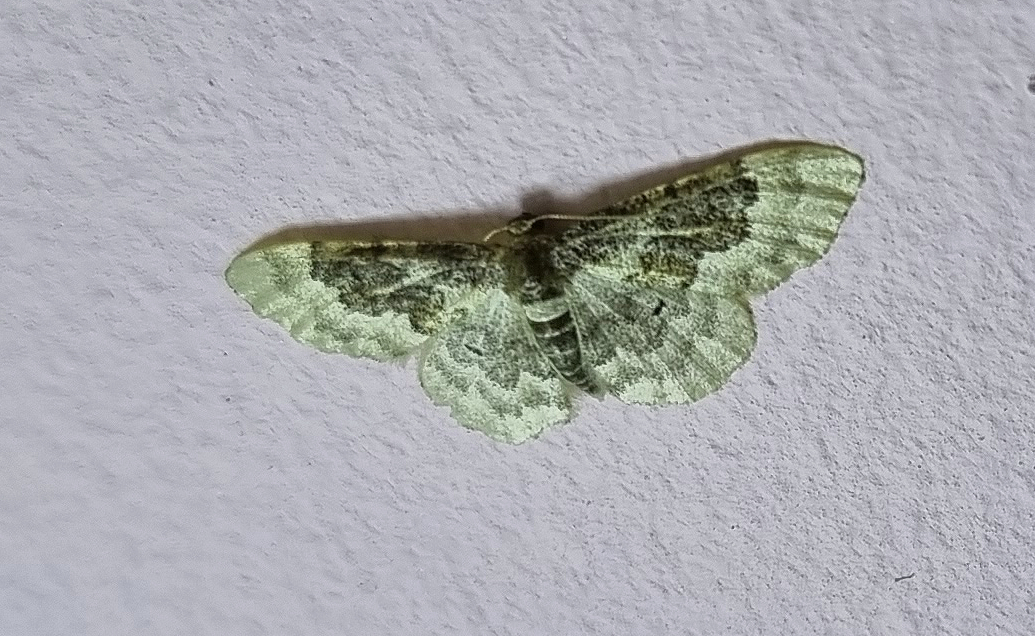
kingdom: Animalia
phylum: Arthropoda
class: Insecta
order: Lepidoptera
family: Geometridae
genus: Idaea
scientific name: Idaea rusticata
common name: Least carpet
